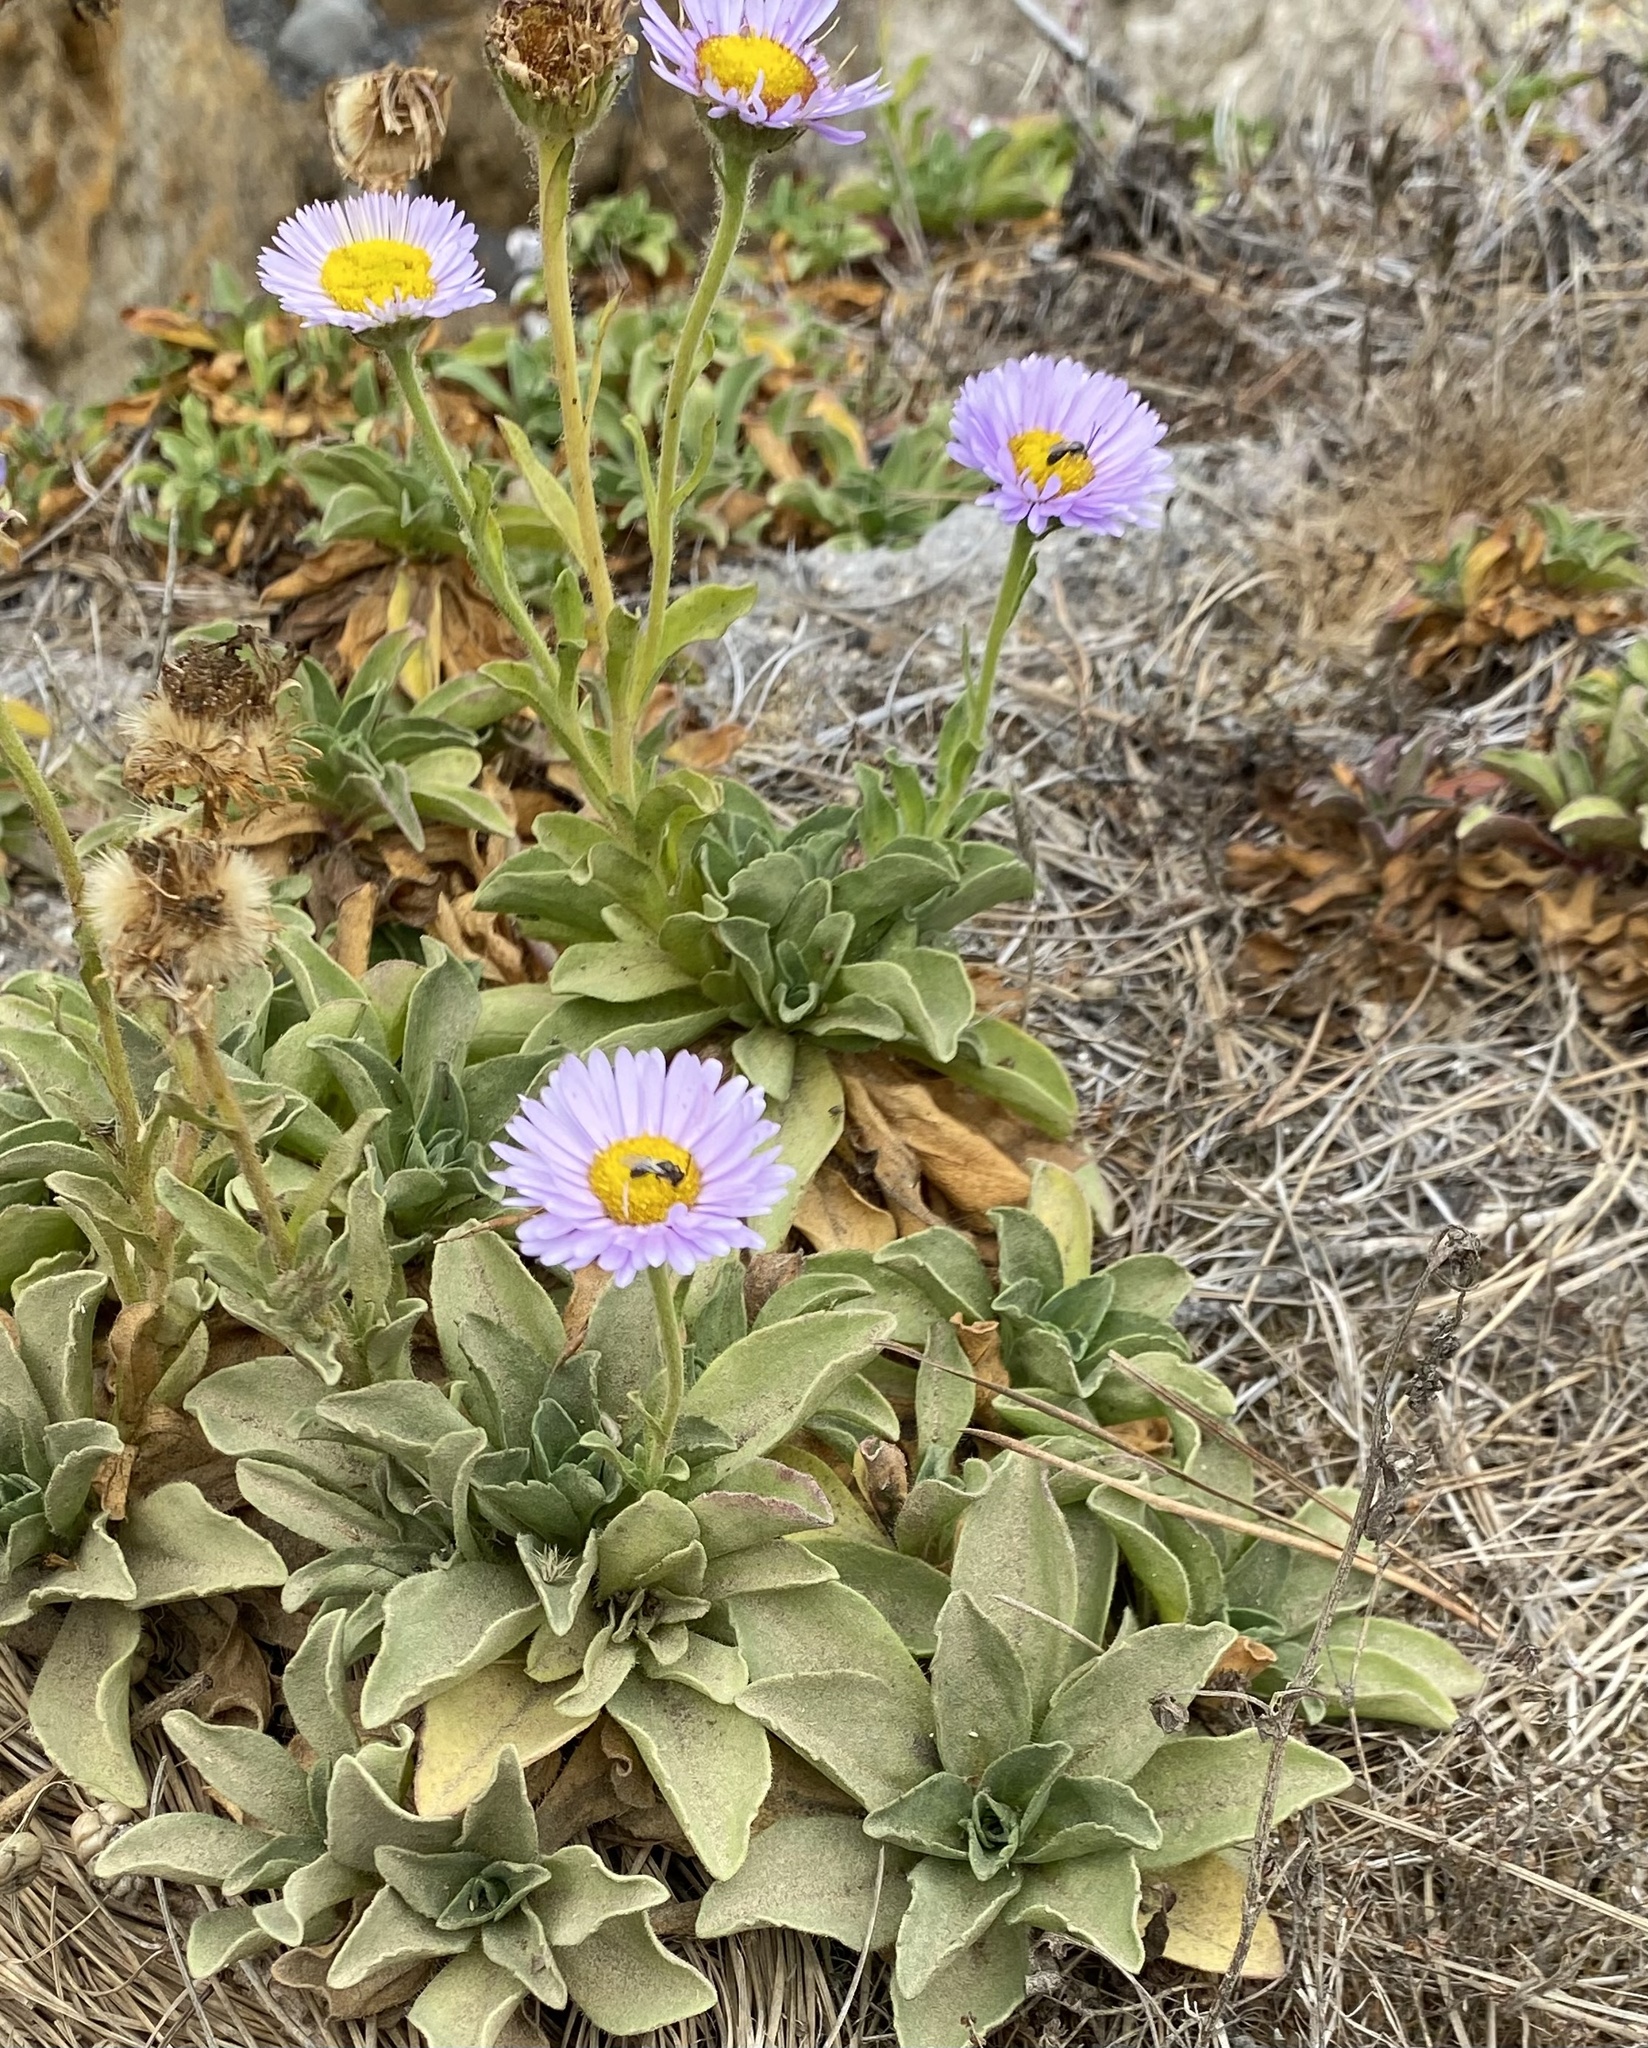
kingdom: Plantae
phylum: Tracheophyta
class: Magnoliopsida
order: Asterales
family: Asteraceae
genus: Erigeron
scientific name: Erigeron glaucus
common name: Seaside daisy
